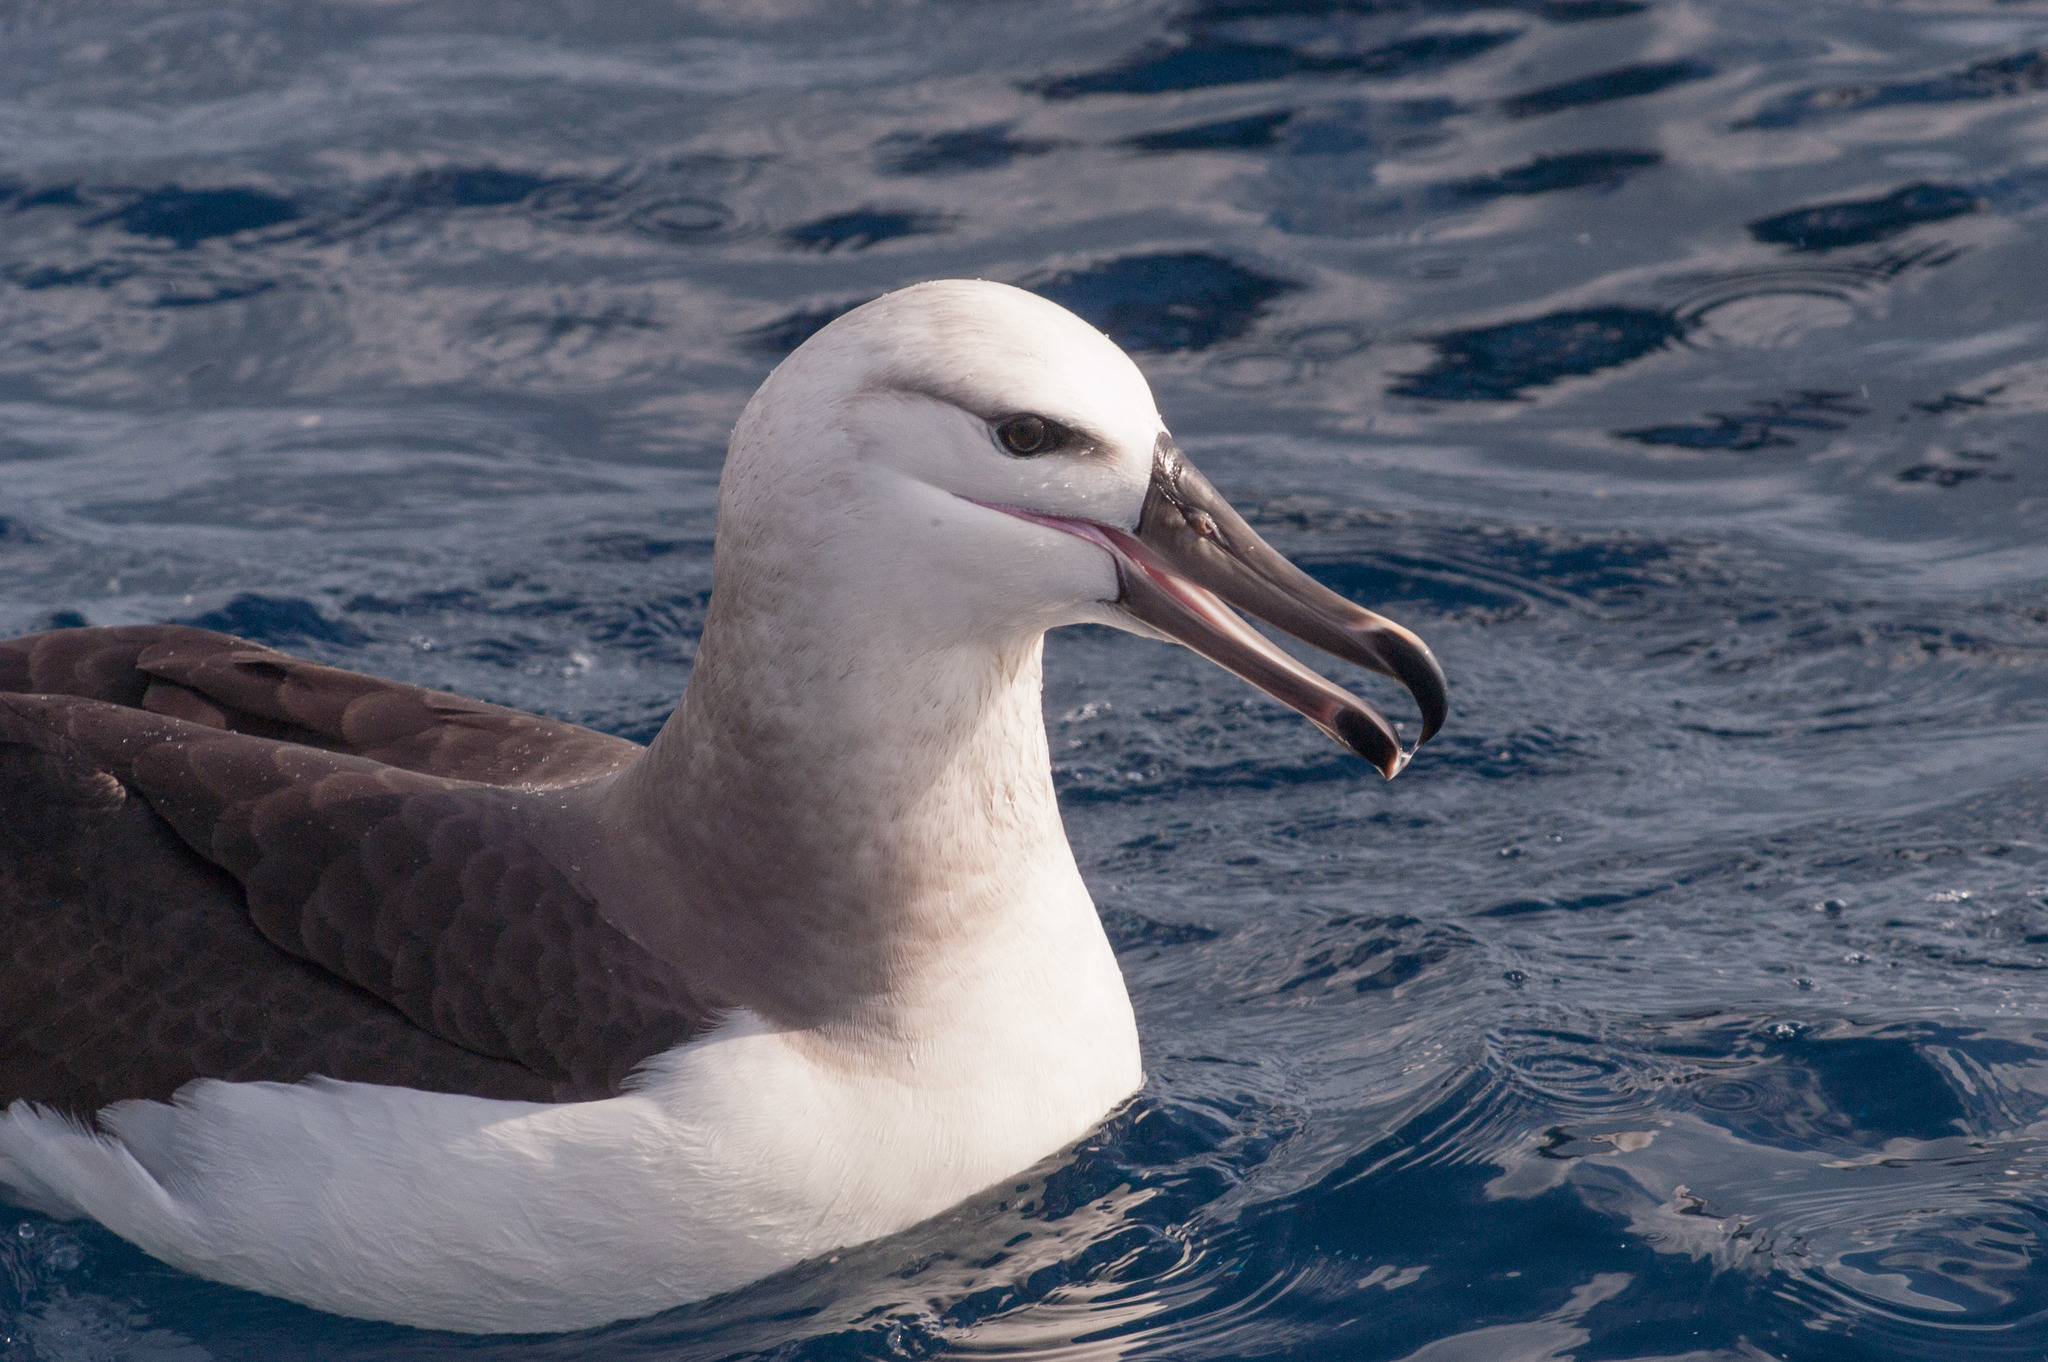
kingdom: Animalia
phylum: Chordata
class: Aves
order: Procellariiformes
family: Diomedeidae
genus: Thalassarche
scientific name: Thalassarche melanophris
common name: Black-browed albatross
